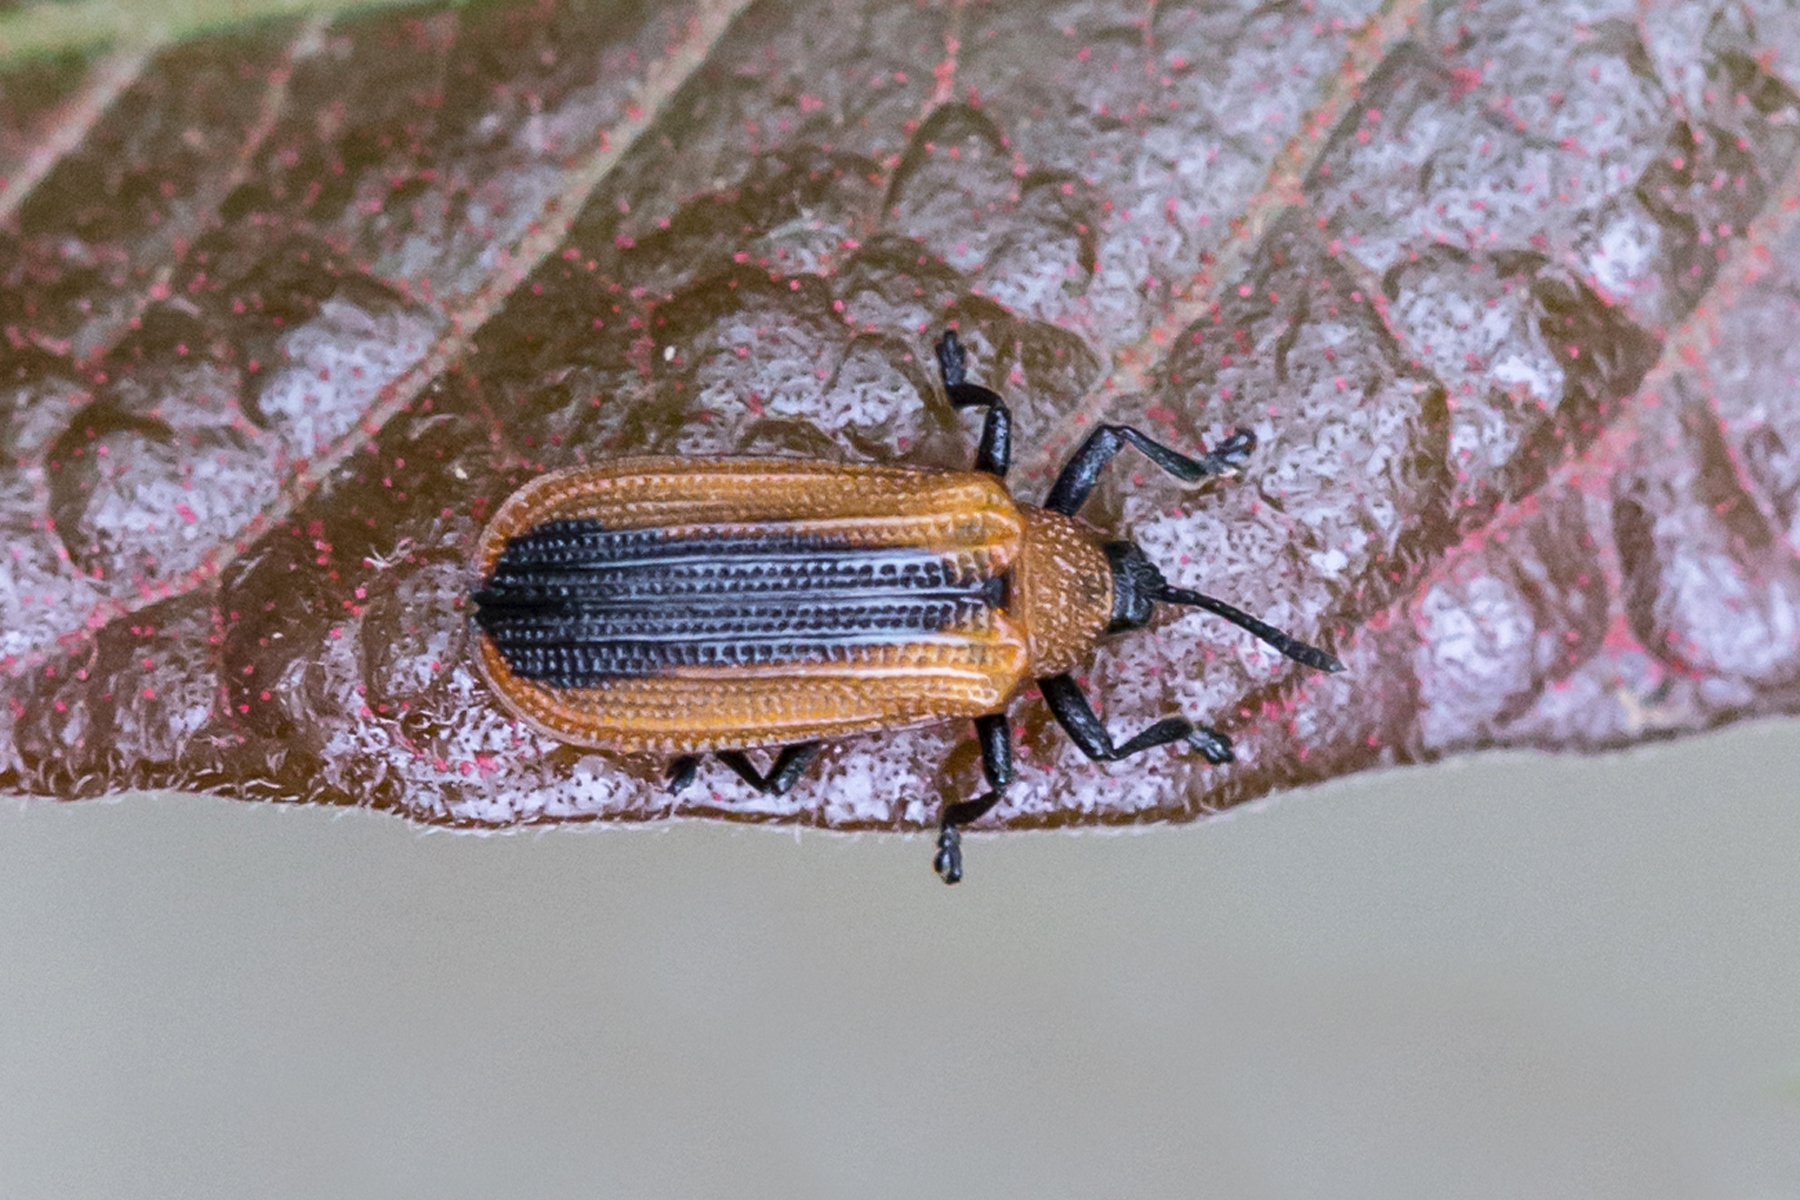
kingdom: Animalia
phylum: Arthropoda
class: Insecta
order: Coleoptera
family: Chrysomelidae
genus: Odontota
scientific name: Odontota dorsalis
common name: Locust leaf-miner beetle
